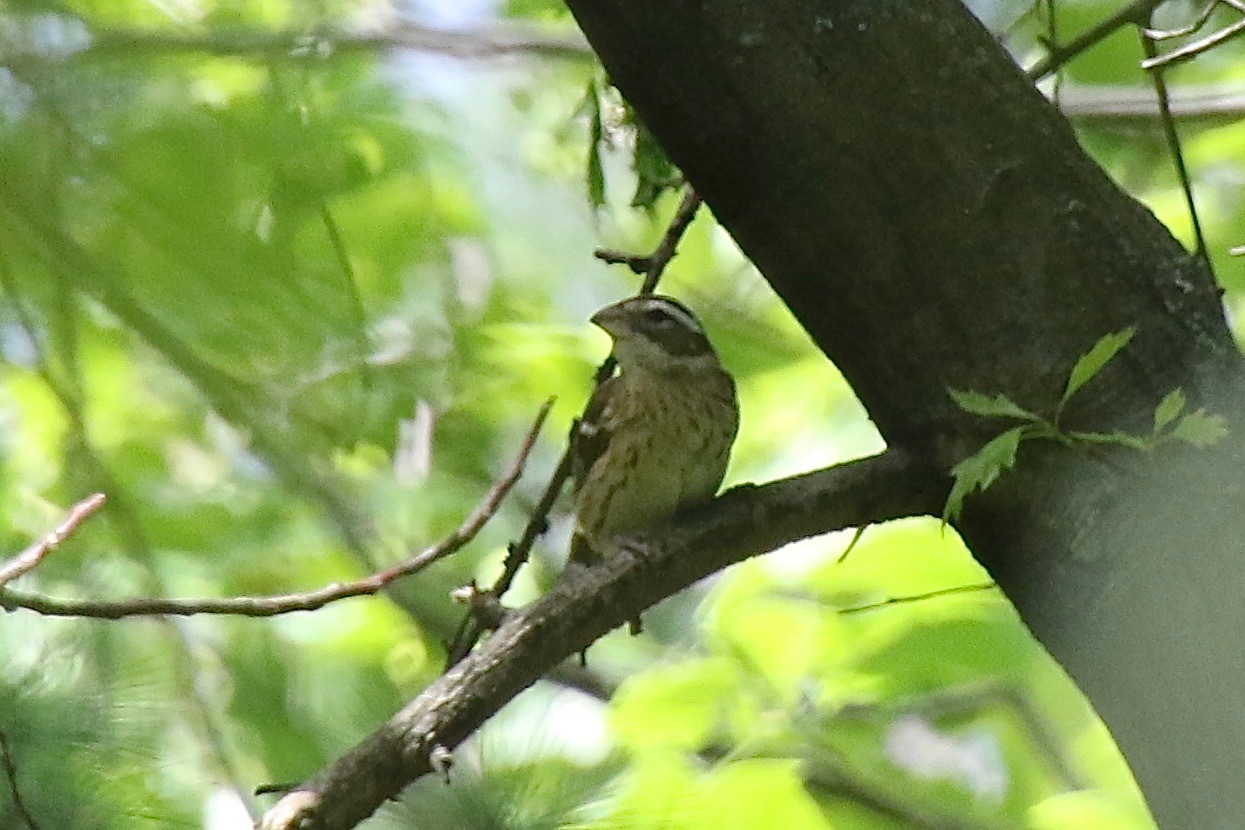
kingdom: Animalia
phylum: Chordata
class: Aves
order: Passeriformes
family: Cardinalidae
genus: Pheucticus
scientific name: Pheucticus ludovicianus
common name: Rose-breasted grosbeak
